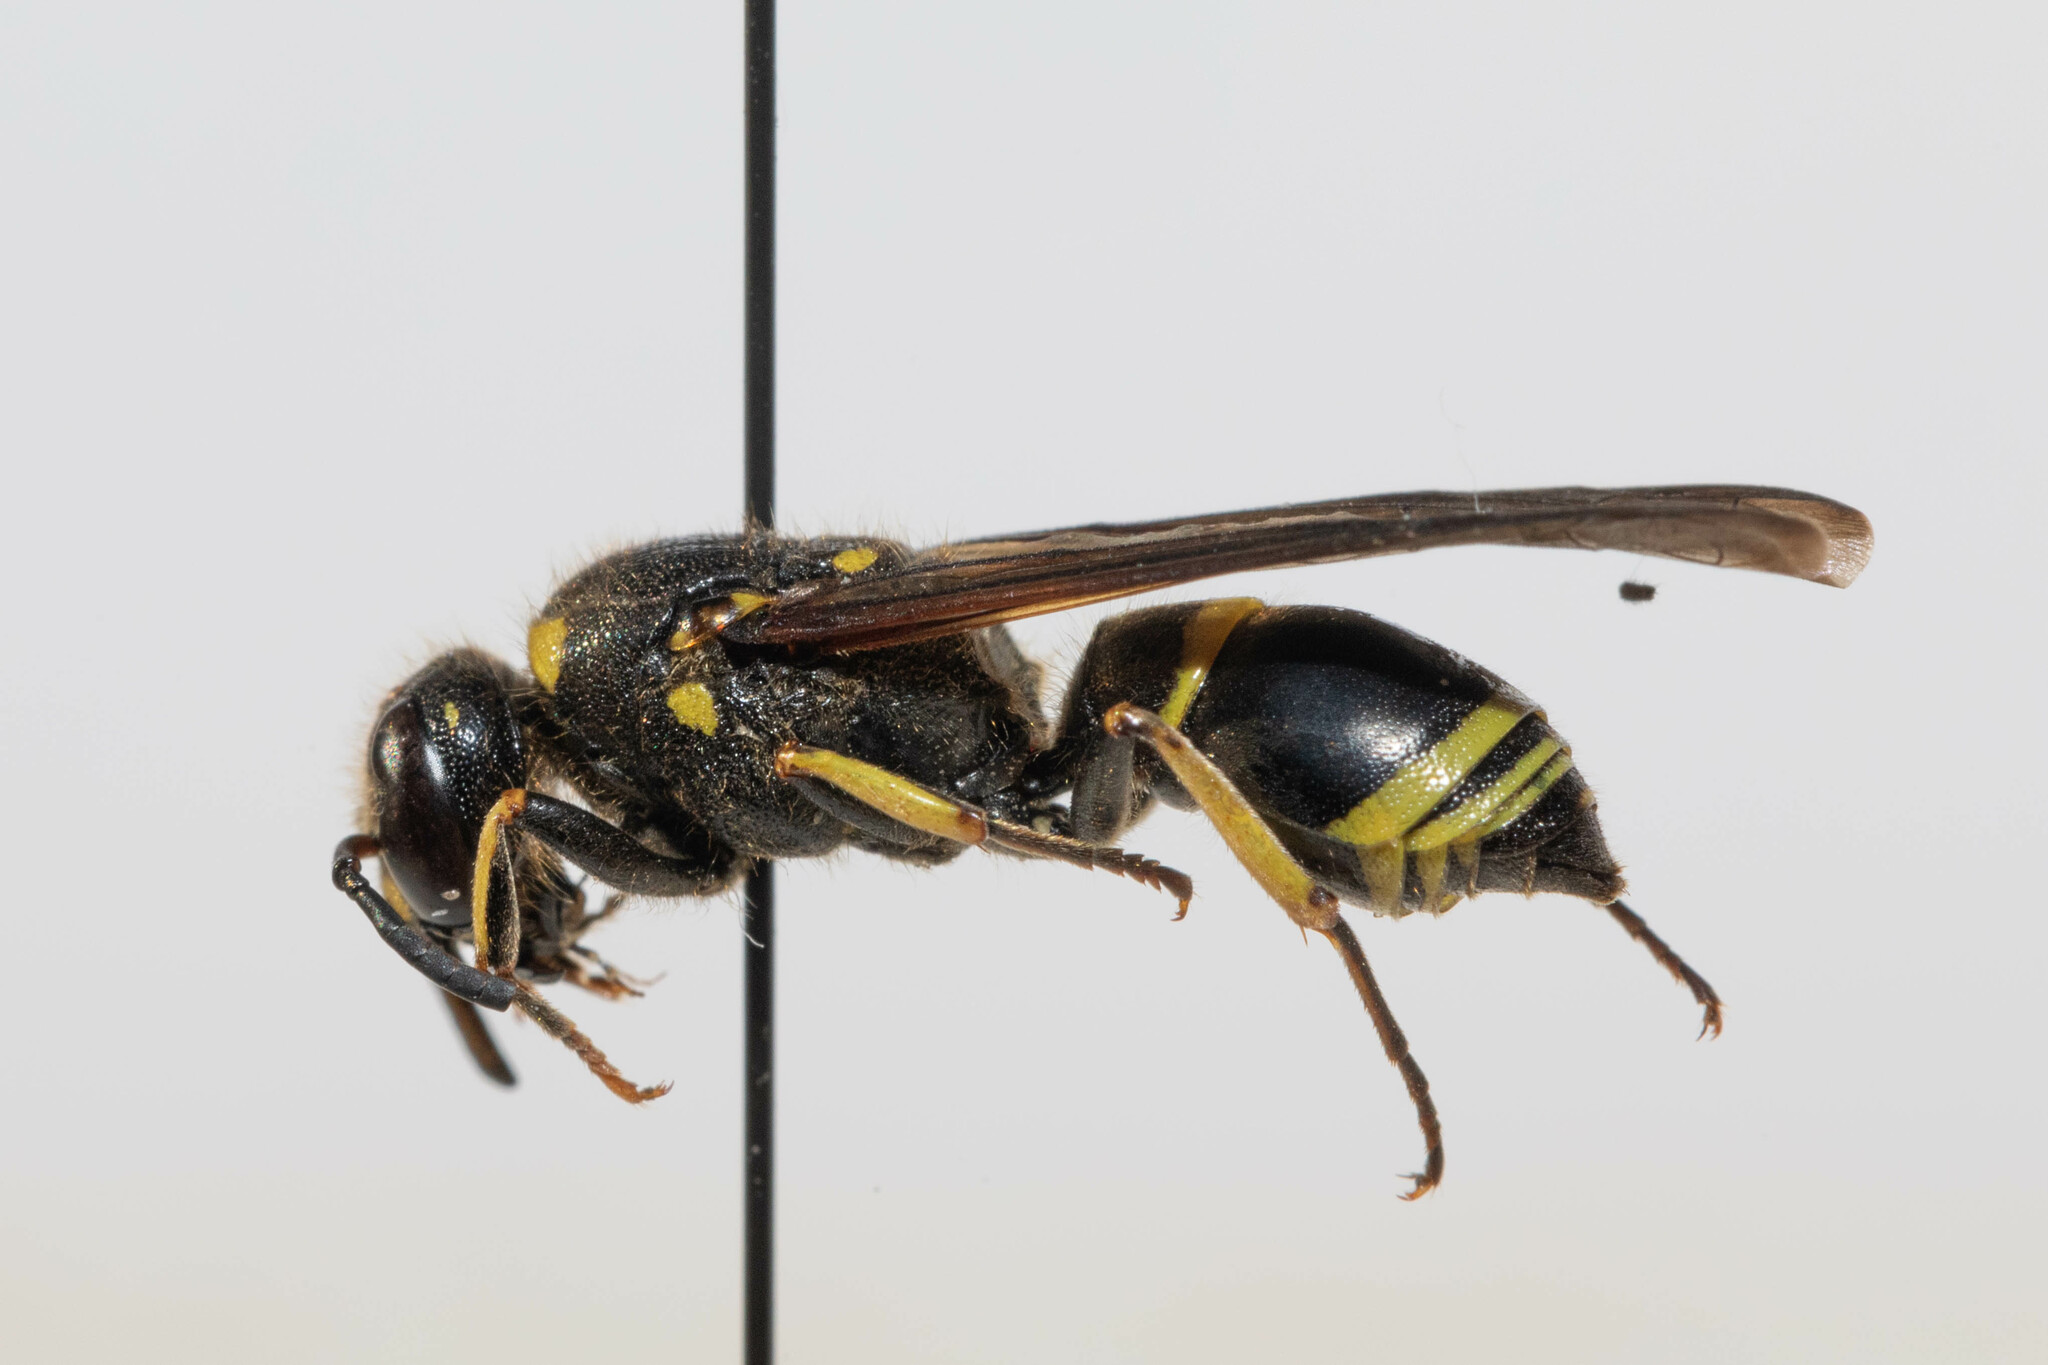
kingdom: Animalia
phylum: Arthropoda
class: Insecta
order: Hymenoptera
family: Vespidae
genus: Ancistrocerus
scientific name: Ancistrocerus
